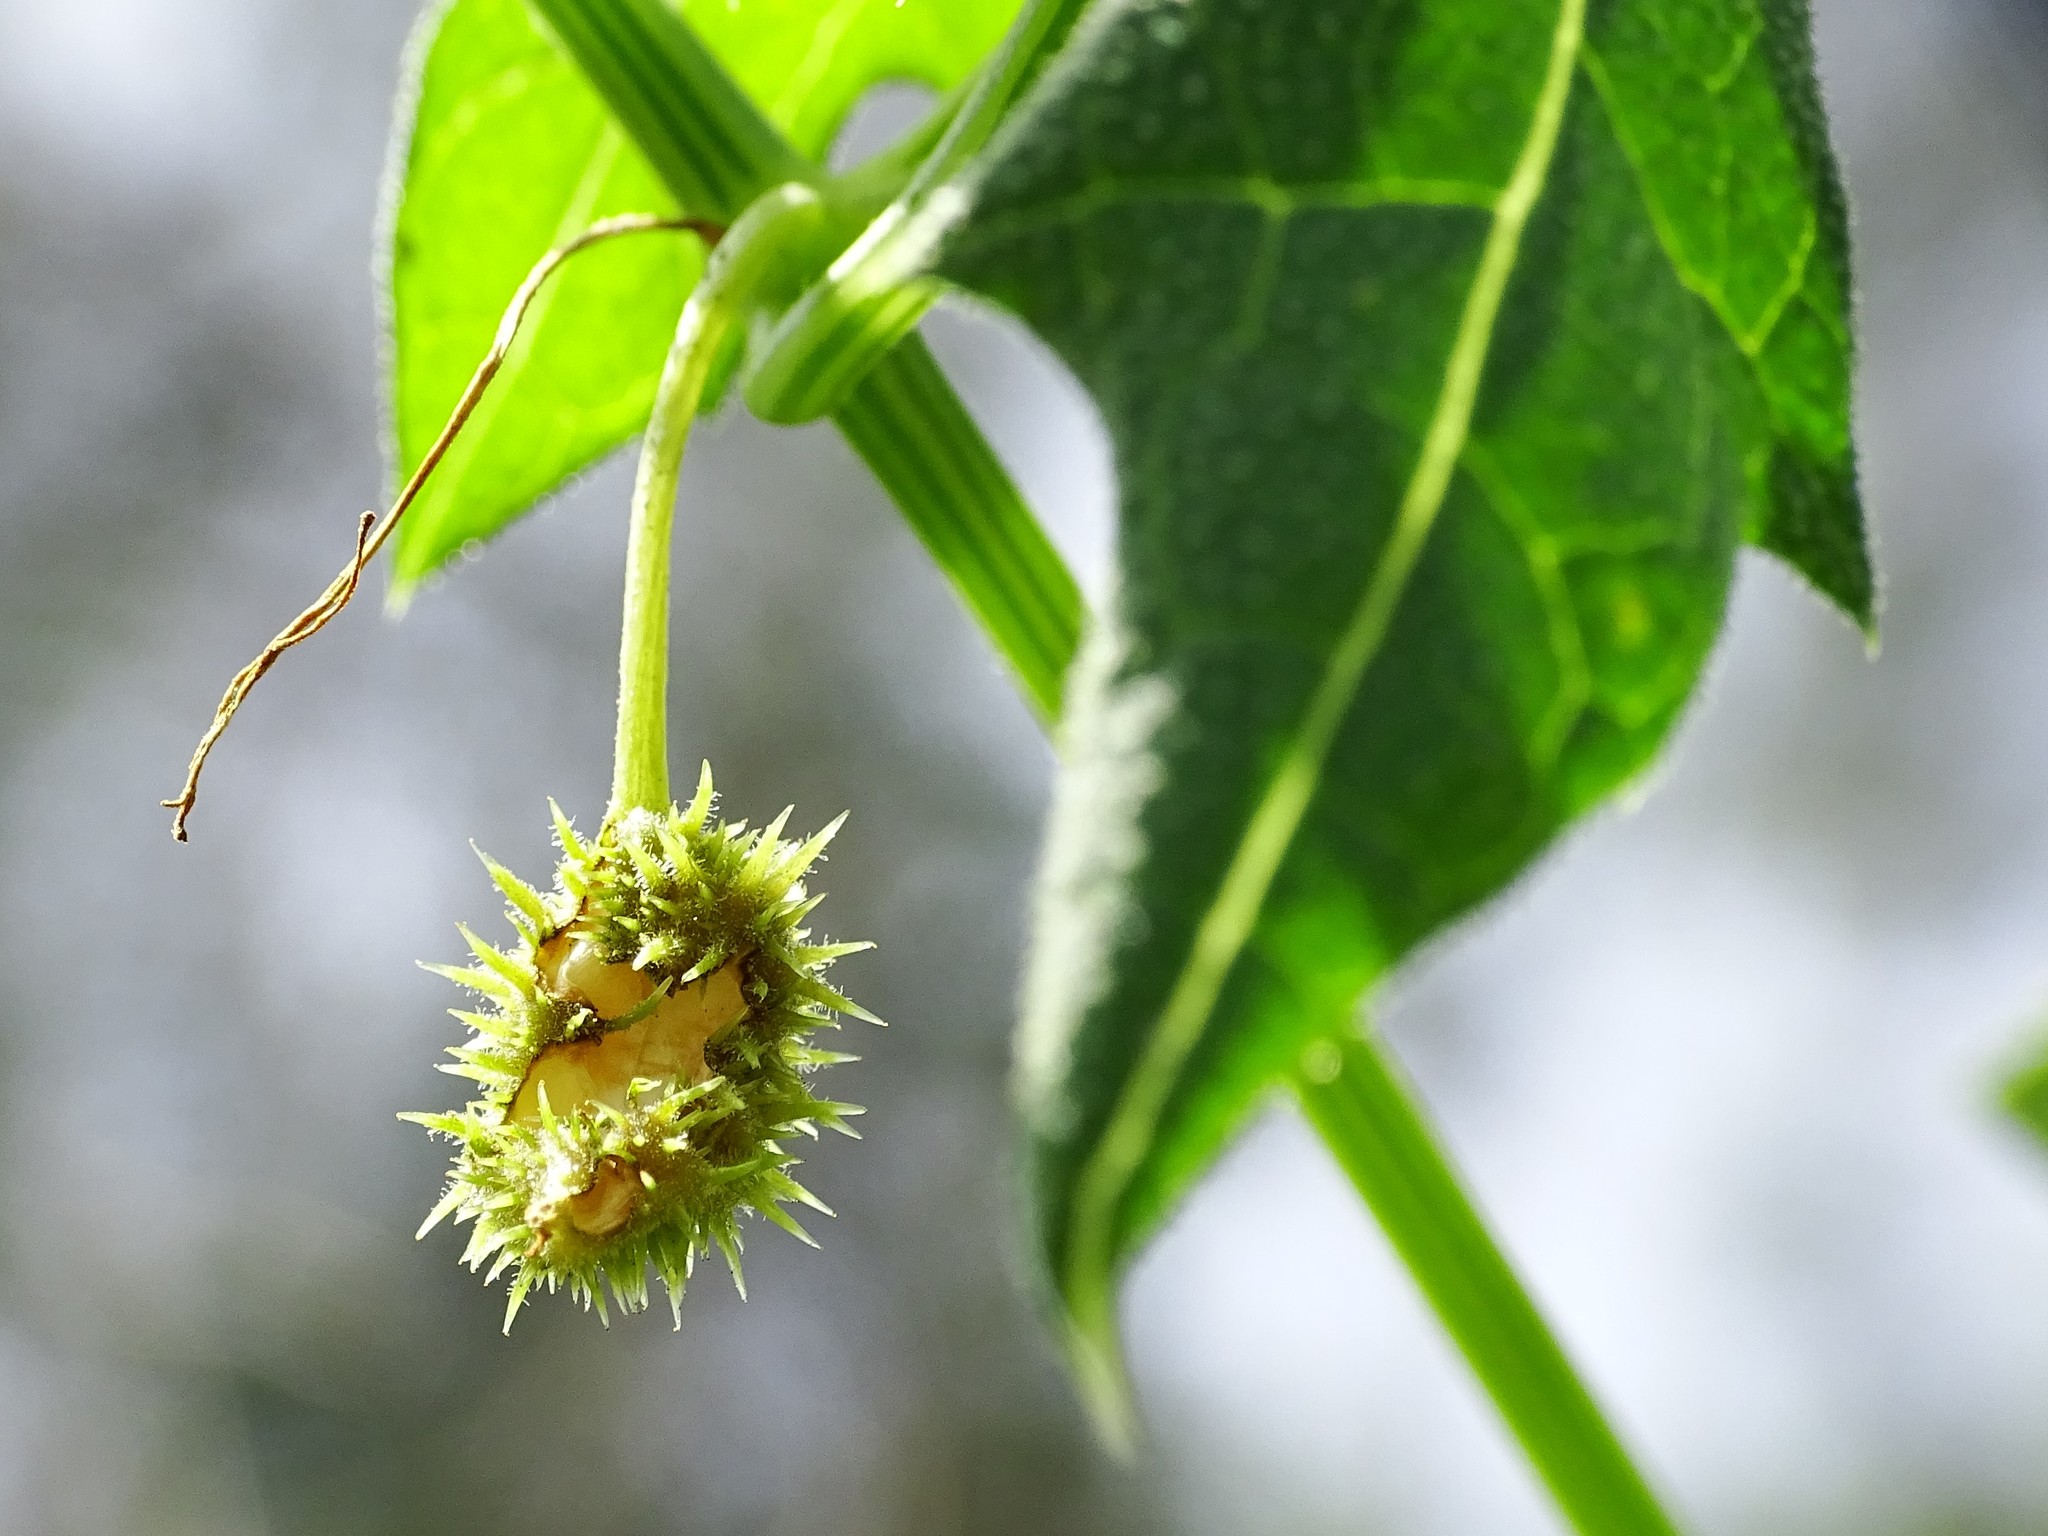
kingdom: Plantae
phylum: Tracheophyta
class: Magnoliopsida
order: Cucurbitales
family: Cucurbitaceae
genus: Marah
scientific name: Marah macrocarpa
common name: Cucamonga manroot
